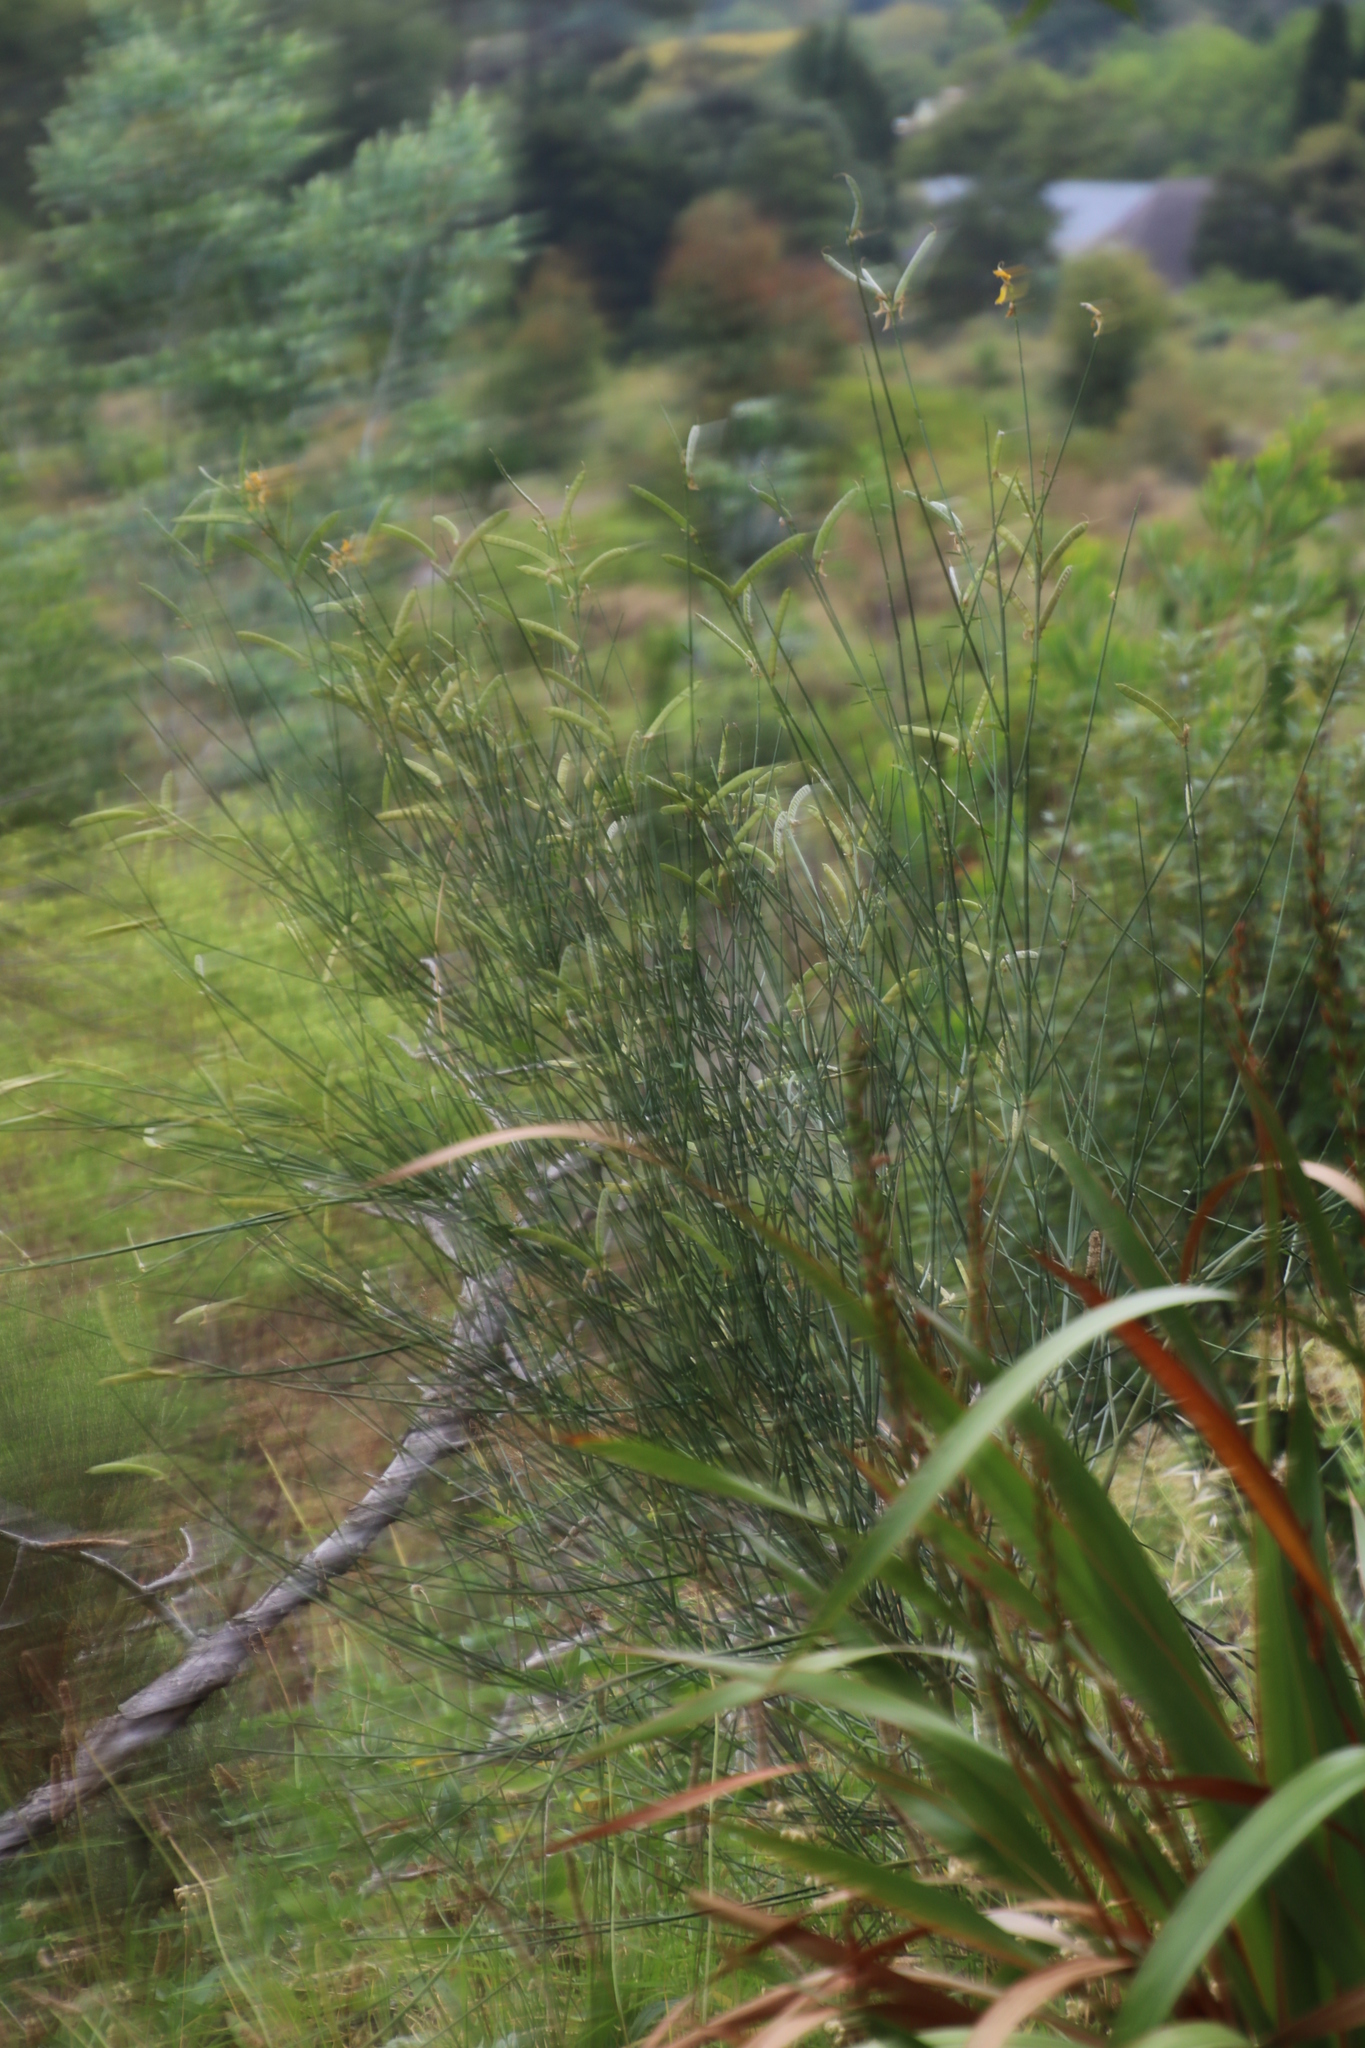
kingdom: Plantae
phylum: Tracheophyta
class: Magnoliopsida
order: Fabales
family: Fabaceae
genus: Spartium
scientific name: Spartium junceum
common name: Spanish broom
